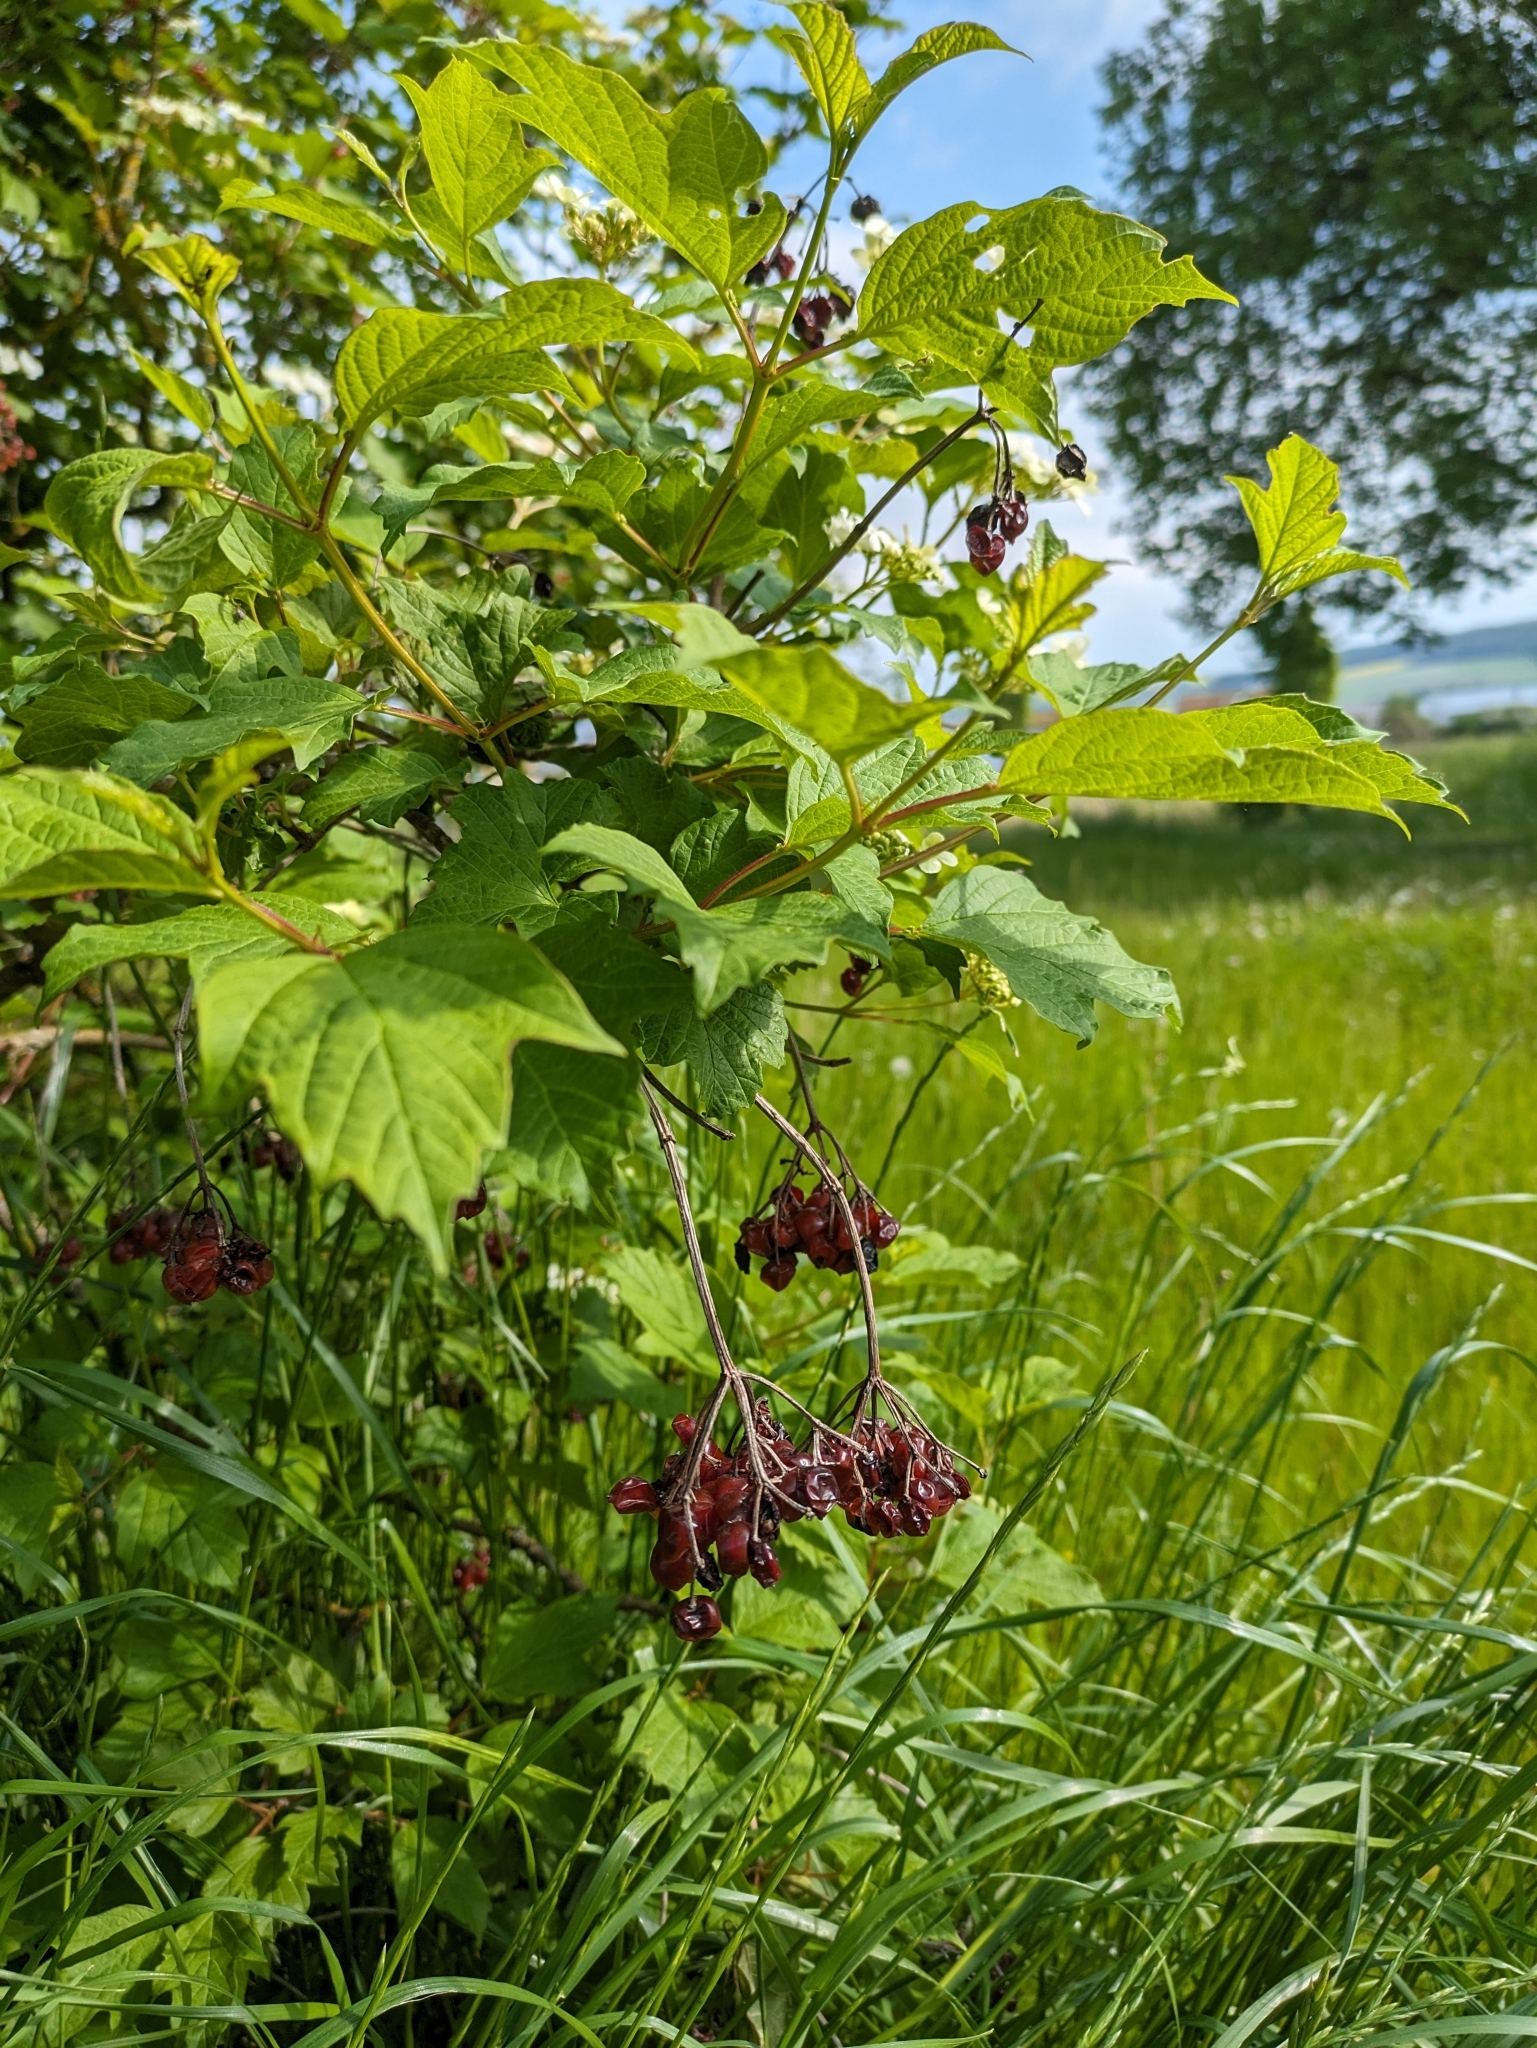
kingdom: Plantae
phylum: Tracheophyta
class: Magnoliopsida
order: Dipsacales
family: Viburnaceae
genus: Viburnum
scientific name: Viburnum opulus
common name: Guelder-rose
